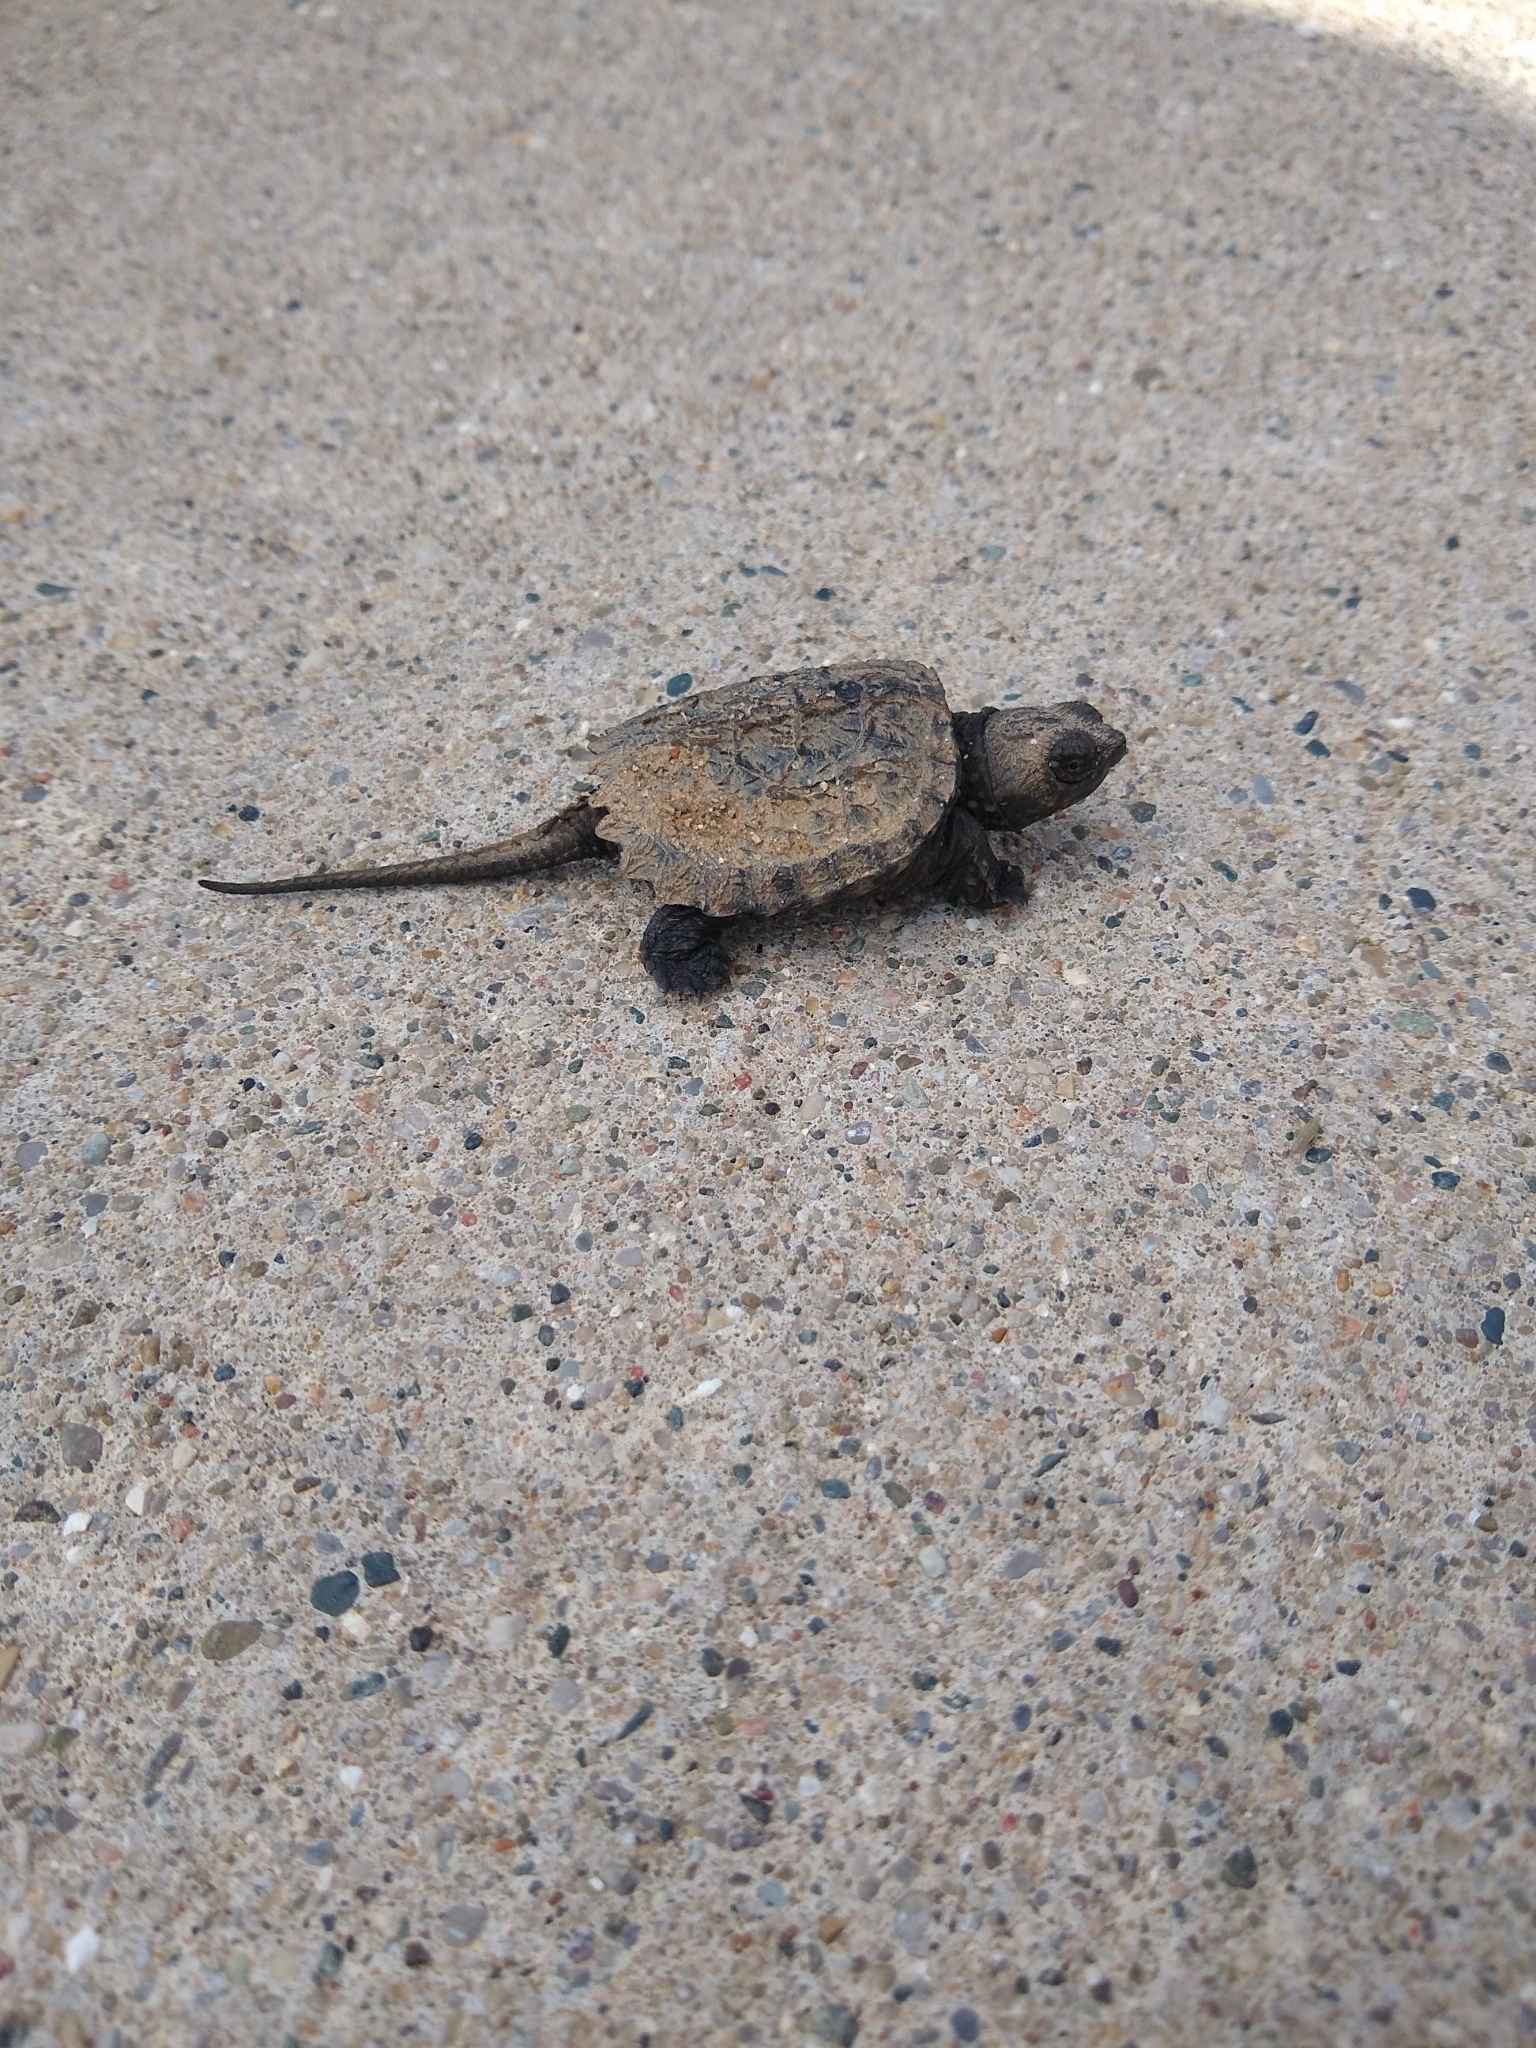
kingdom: Animalia
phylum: Chordata
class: Testudines
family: Chelydridae
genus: Chelydra
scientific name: Chelydra serpentina
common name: Common snapping turtle
